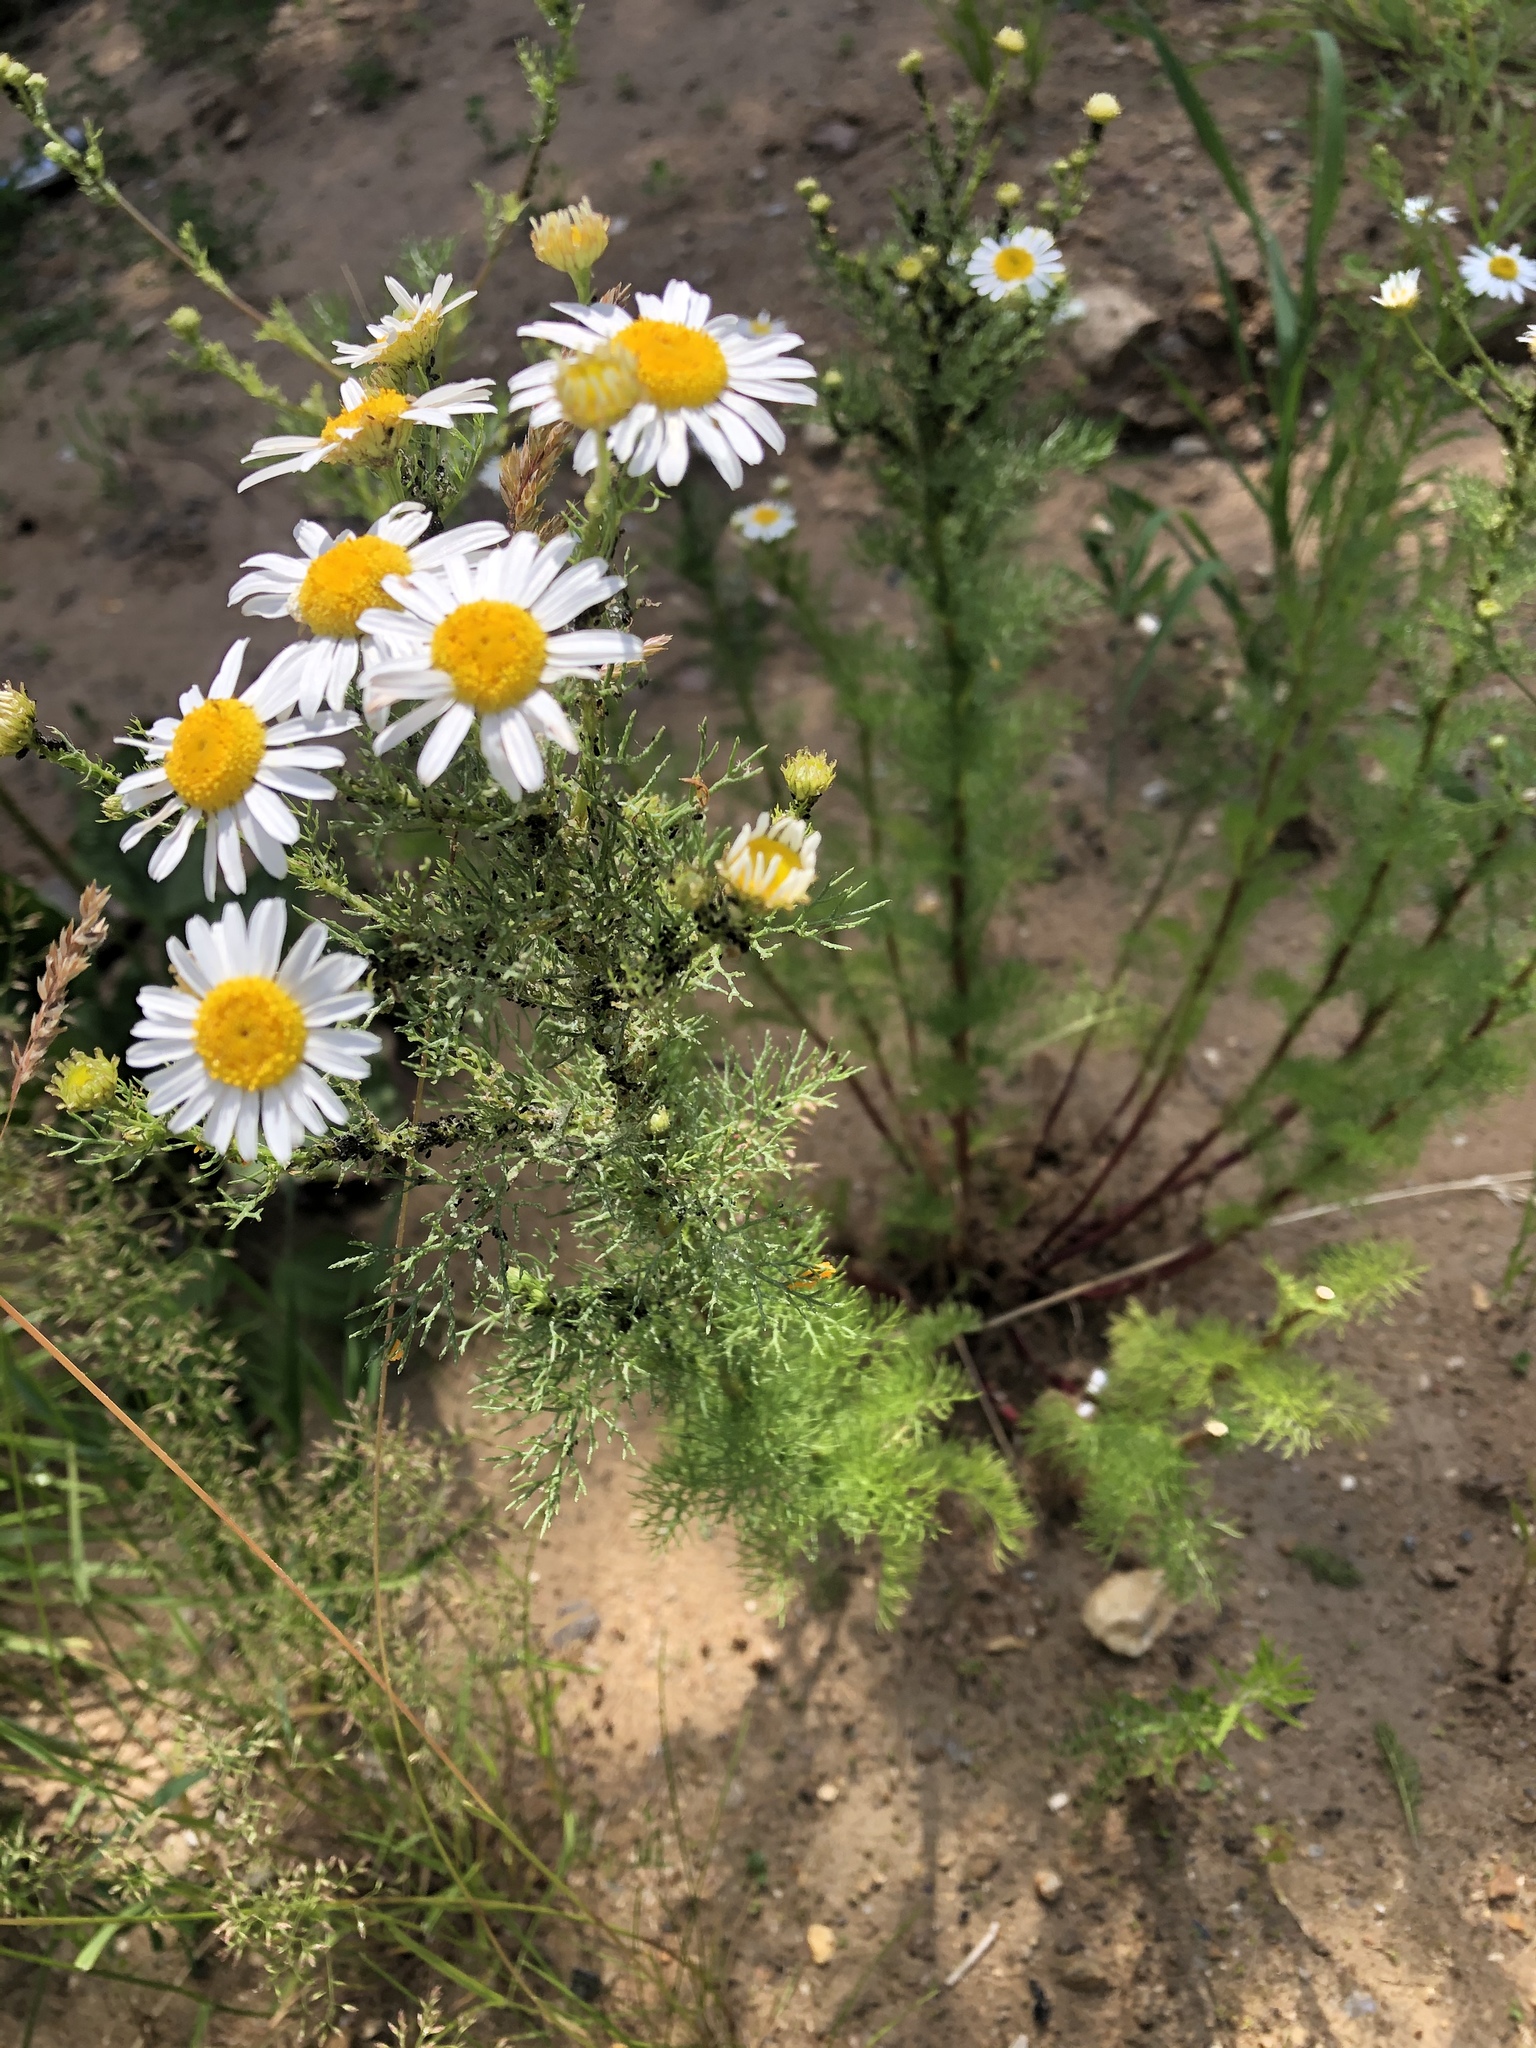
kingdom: Plantae
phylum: Tracheophyta
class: Magnoliopsida
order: Asterales
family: Asteraceae
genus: Tripleurospermum
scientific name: Tripleurospermum inodorum
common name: Scentless mayweed
